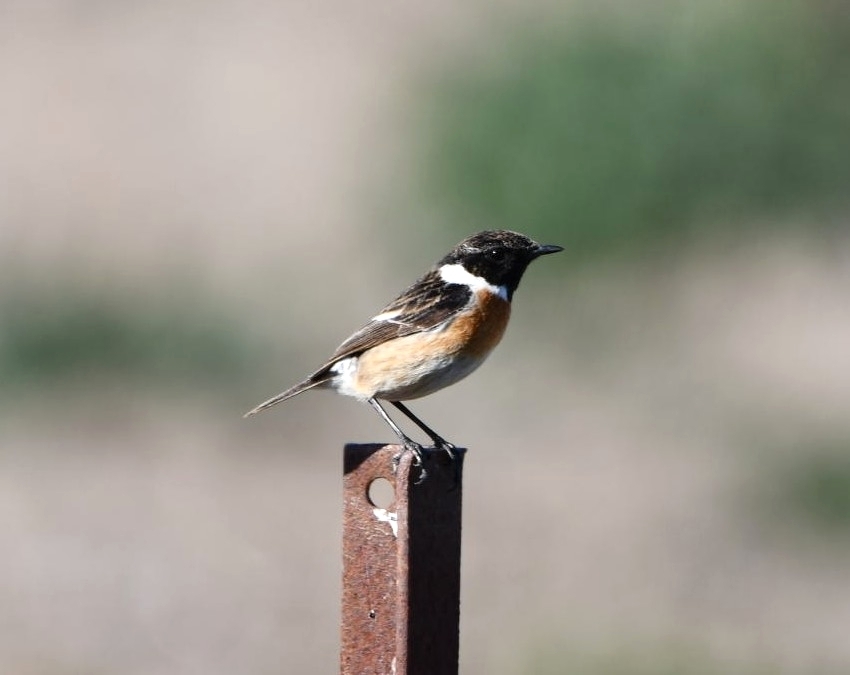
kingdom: Animalia
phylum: Chordata
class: Aves
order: Passeriformes
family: Muscicapidae
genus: Saxicola
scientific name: Saxicola rubicola
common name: European stonechat
